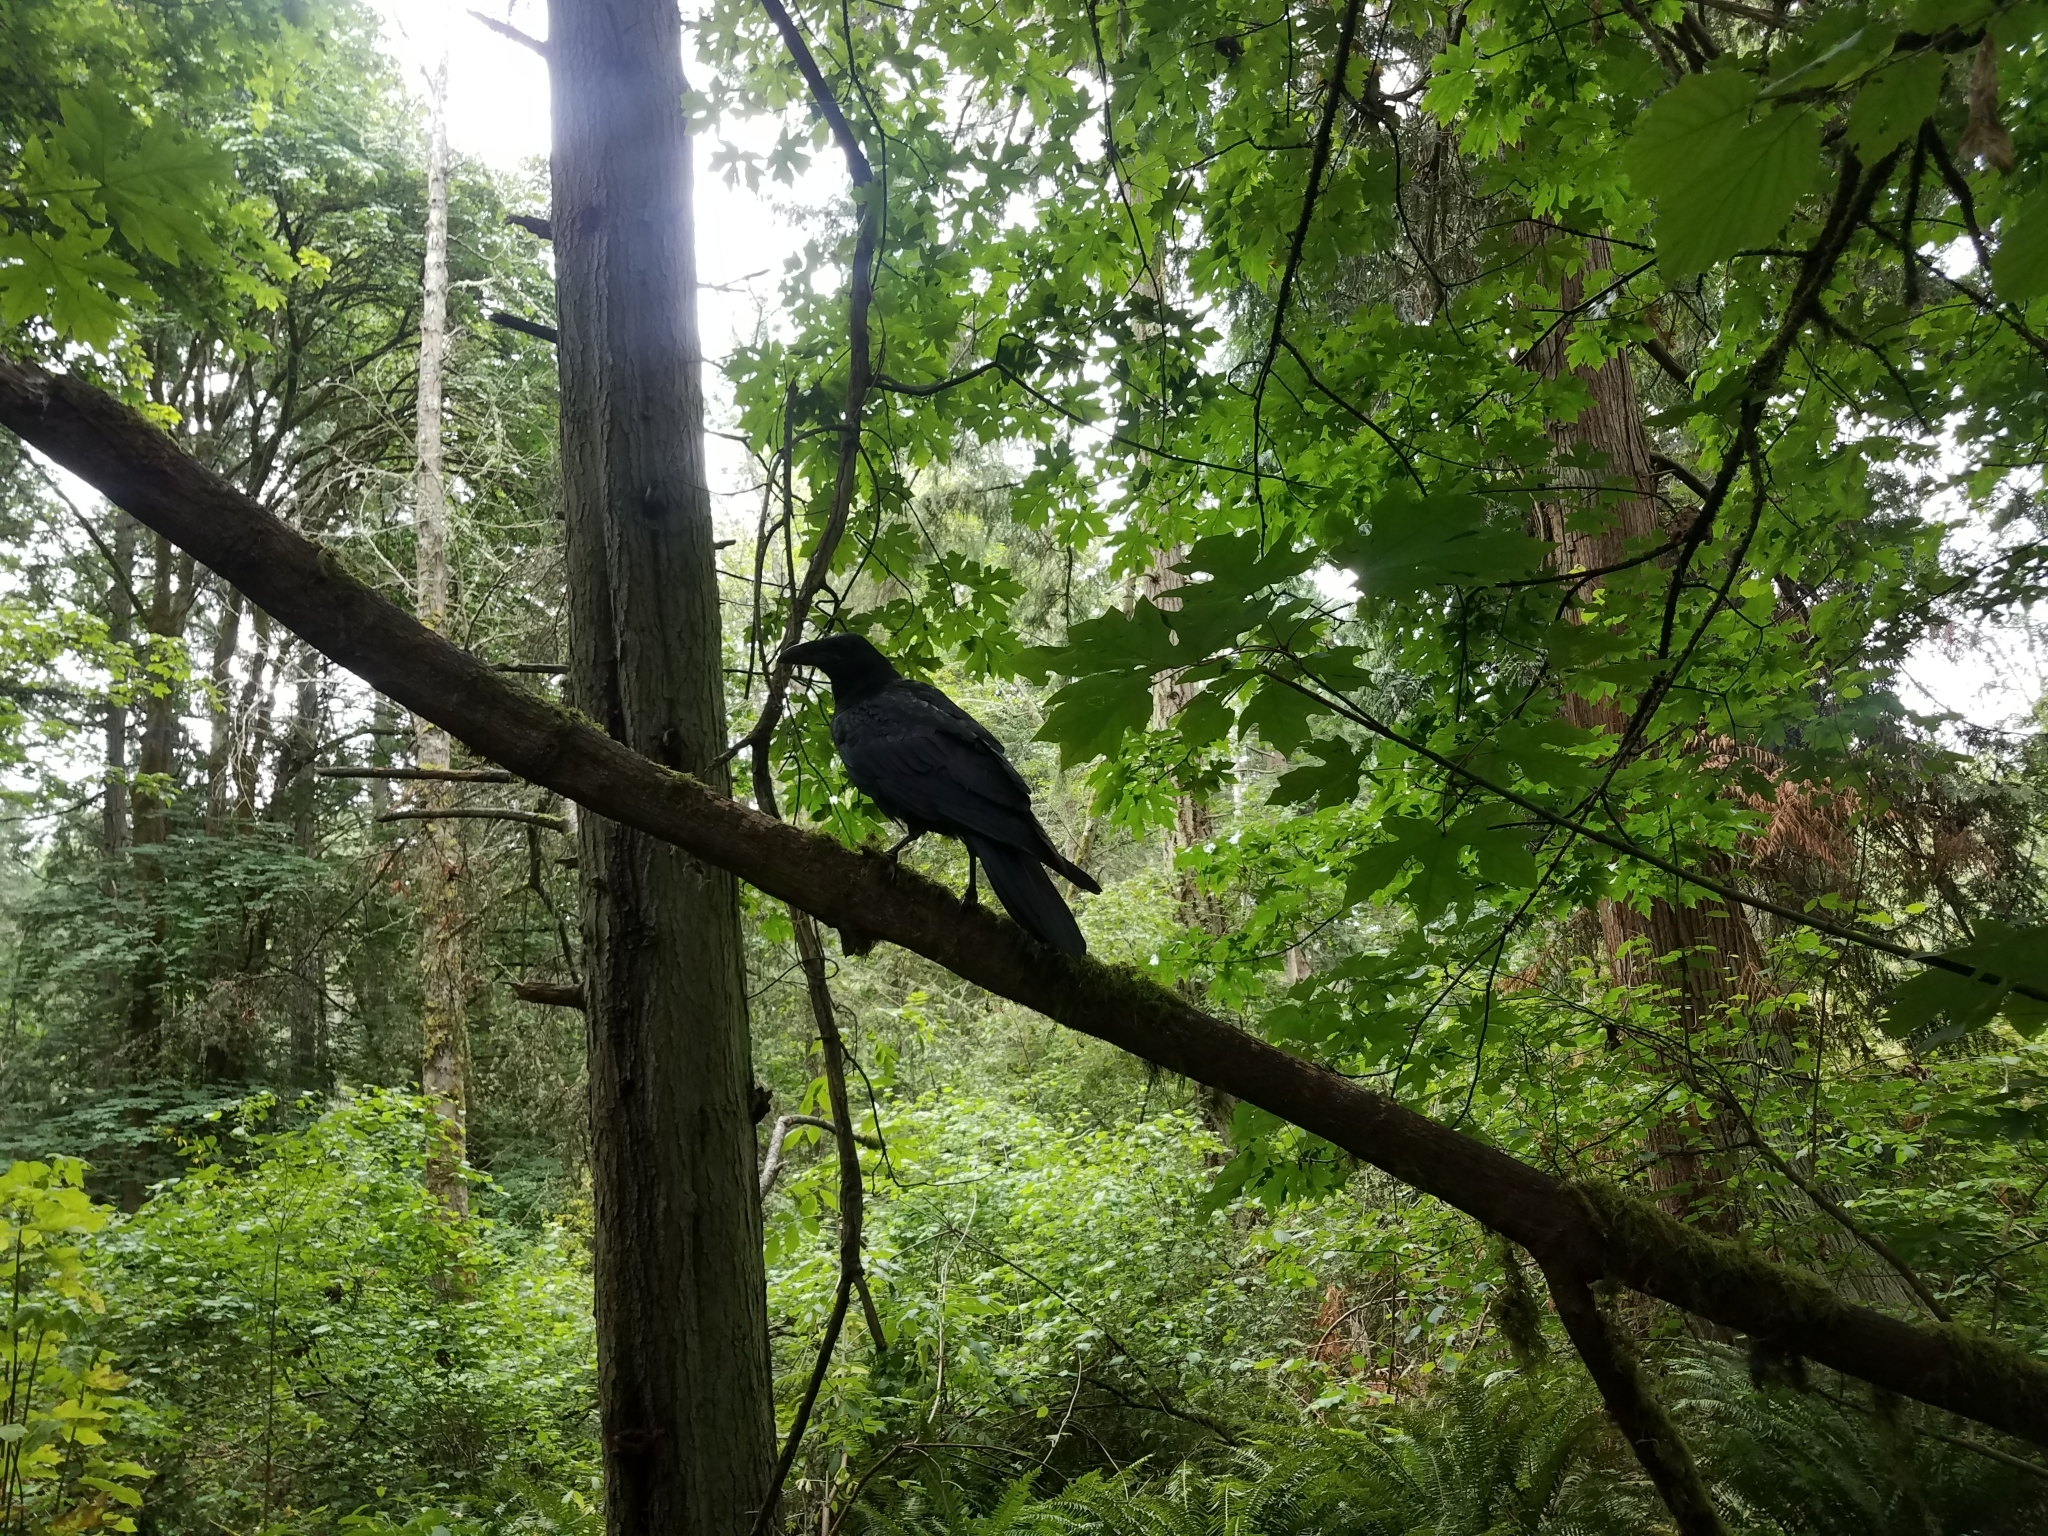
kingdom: Animalia
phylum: Chordata
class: Aves
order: Passeriformes
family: Corvidae
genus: Corvus
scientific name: Corvus corax
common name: Common raven
